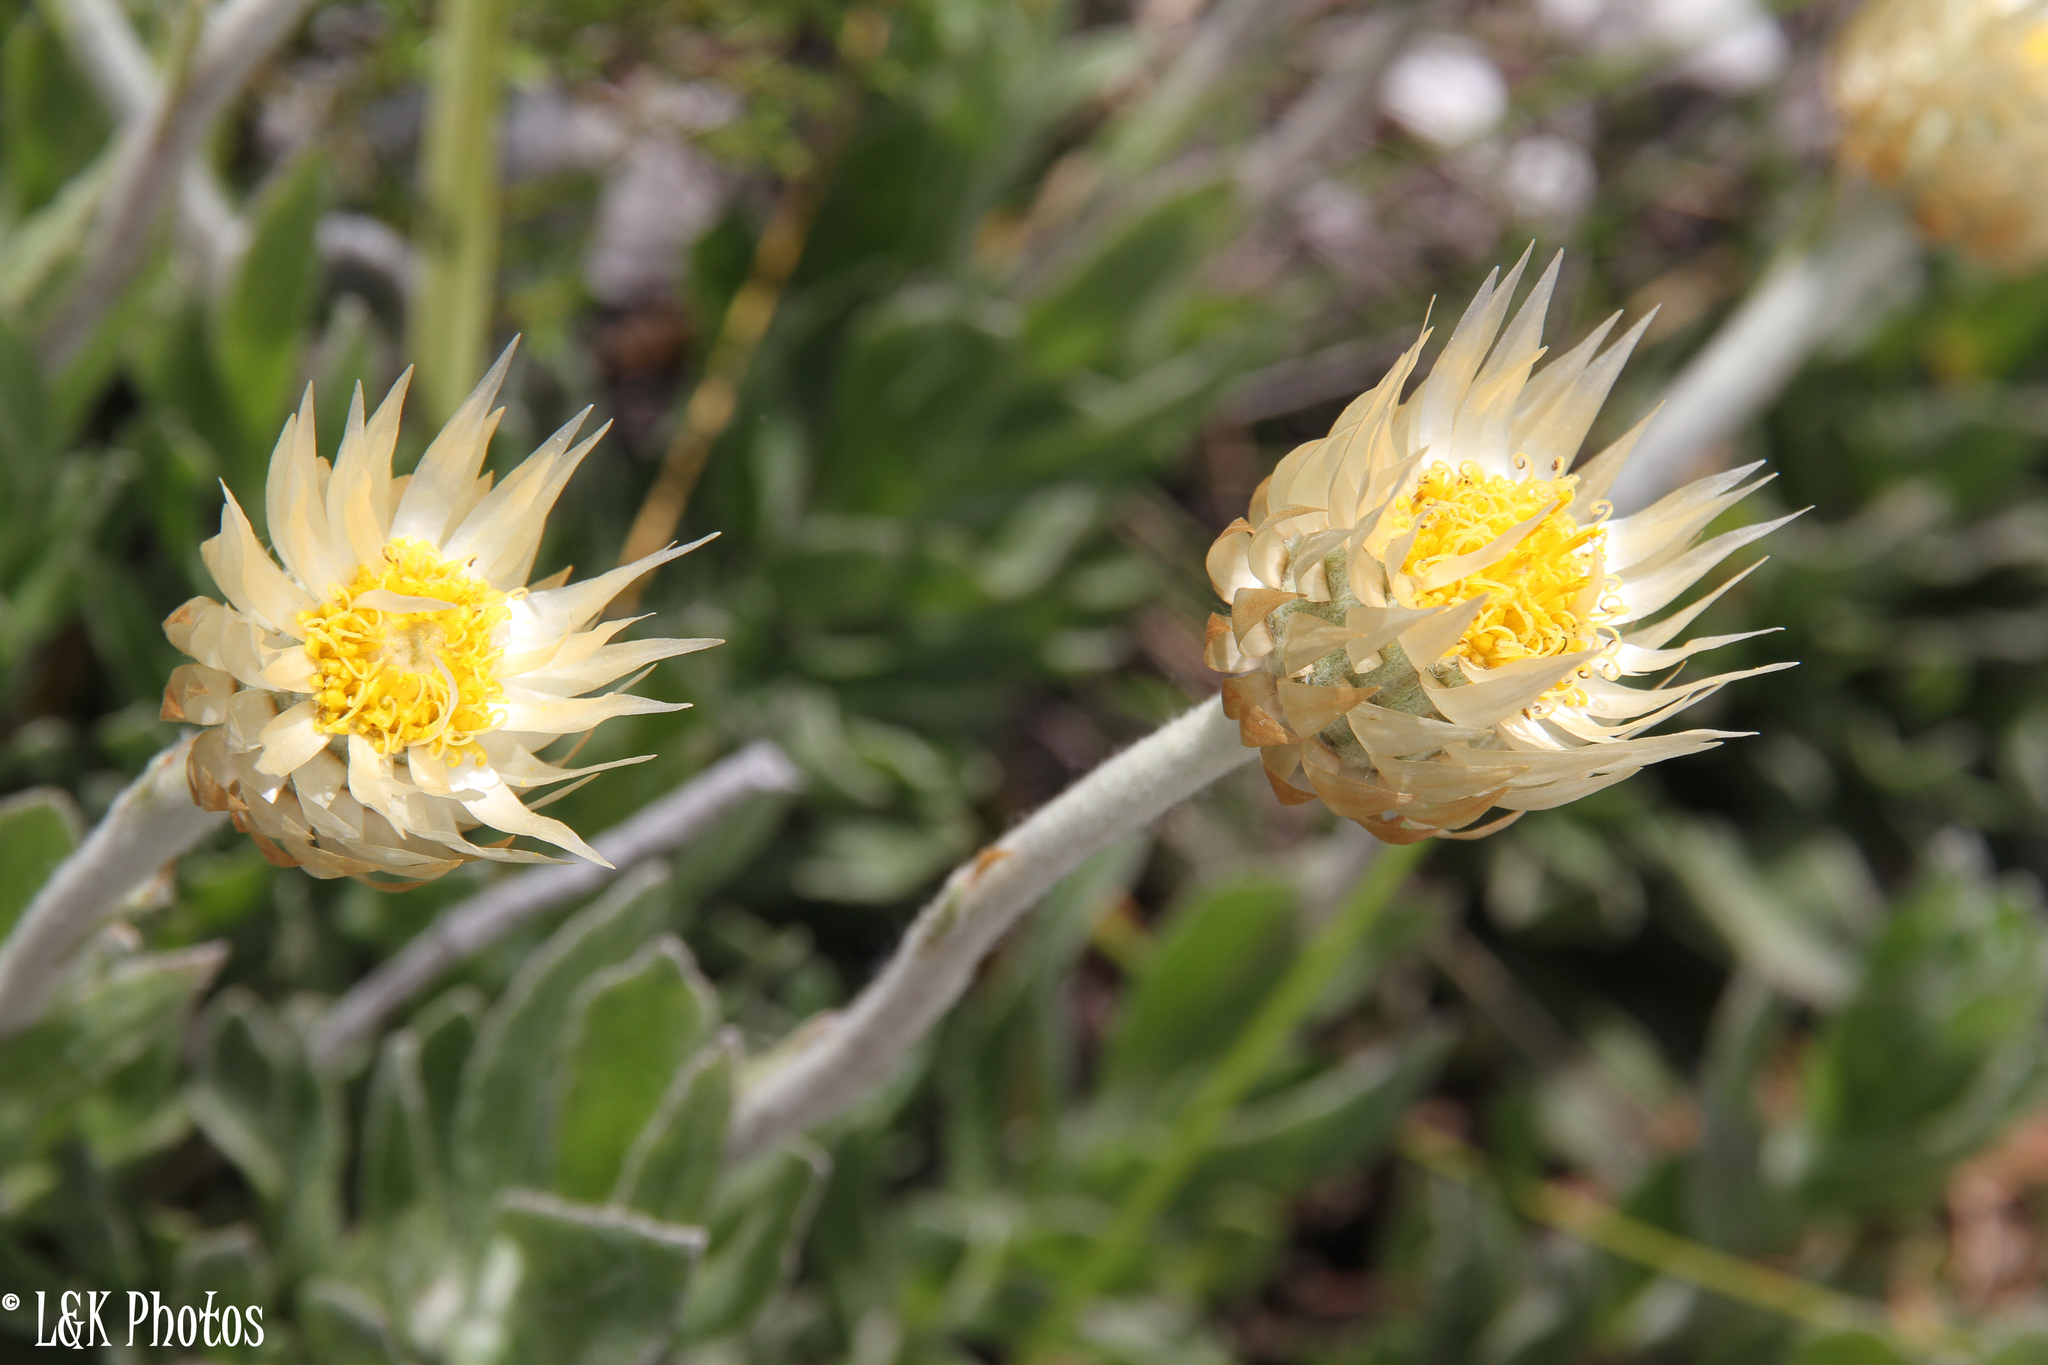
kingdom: Plantae
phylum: Tracheophyta
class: Magnoliopsida
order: Asterales
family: Asteraceae
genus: Syncarpha
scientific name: Syncarpha speciosissima
